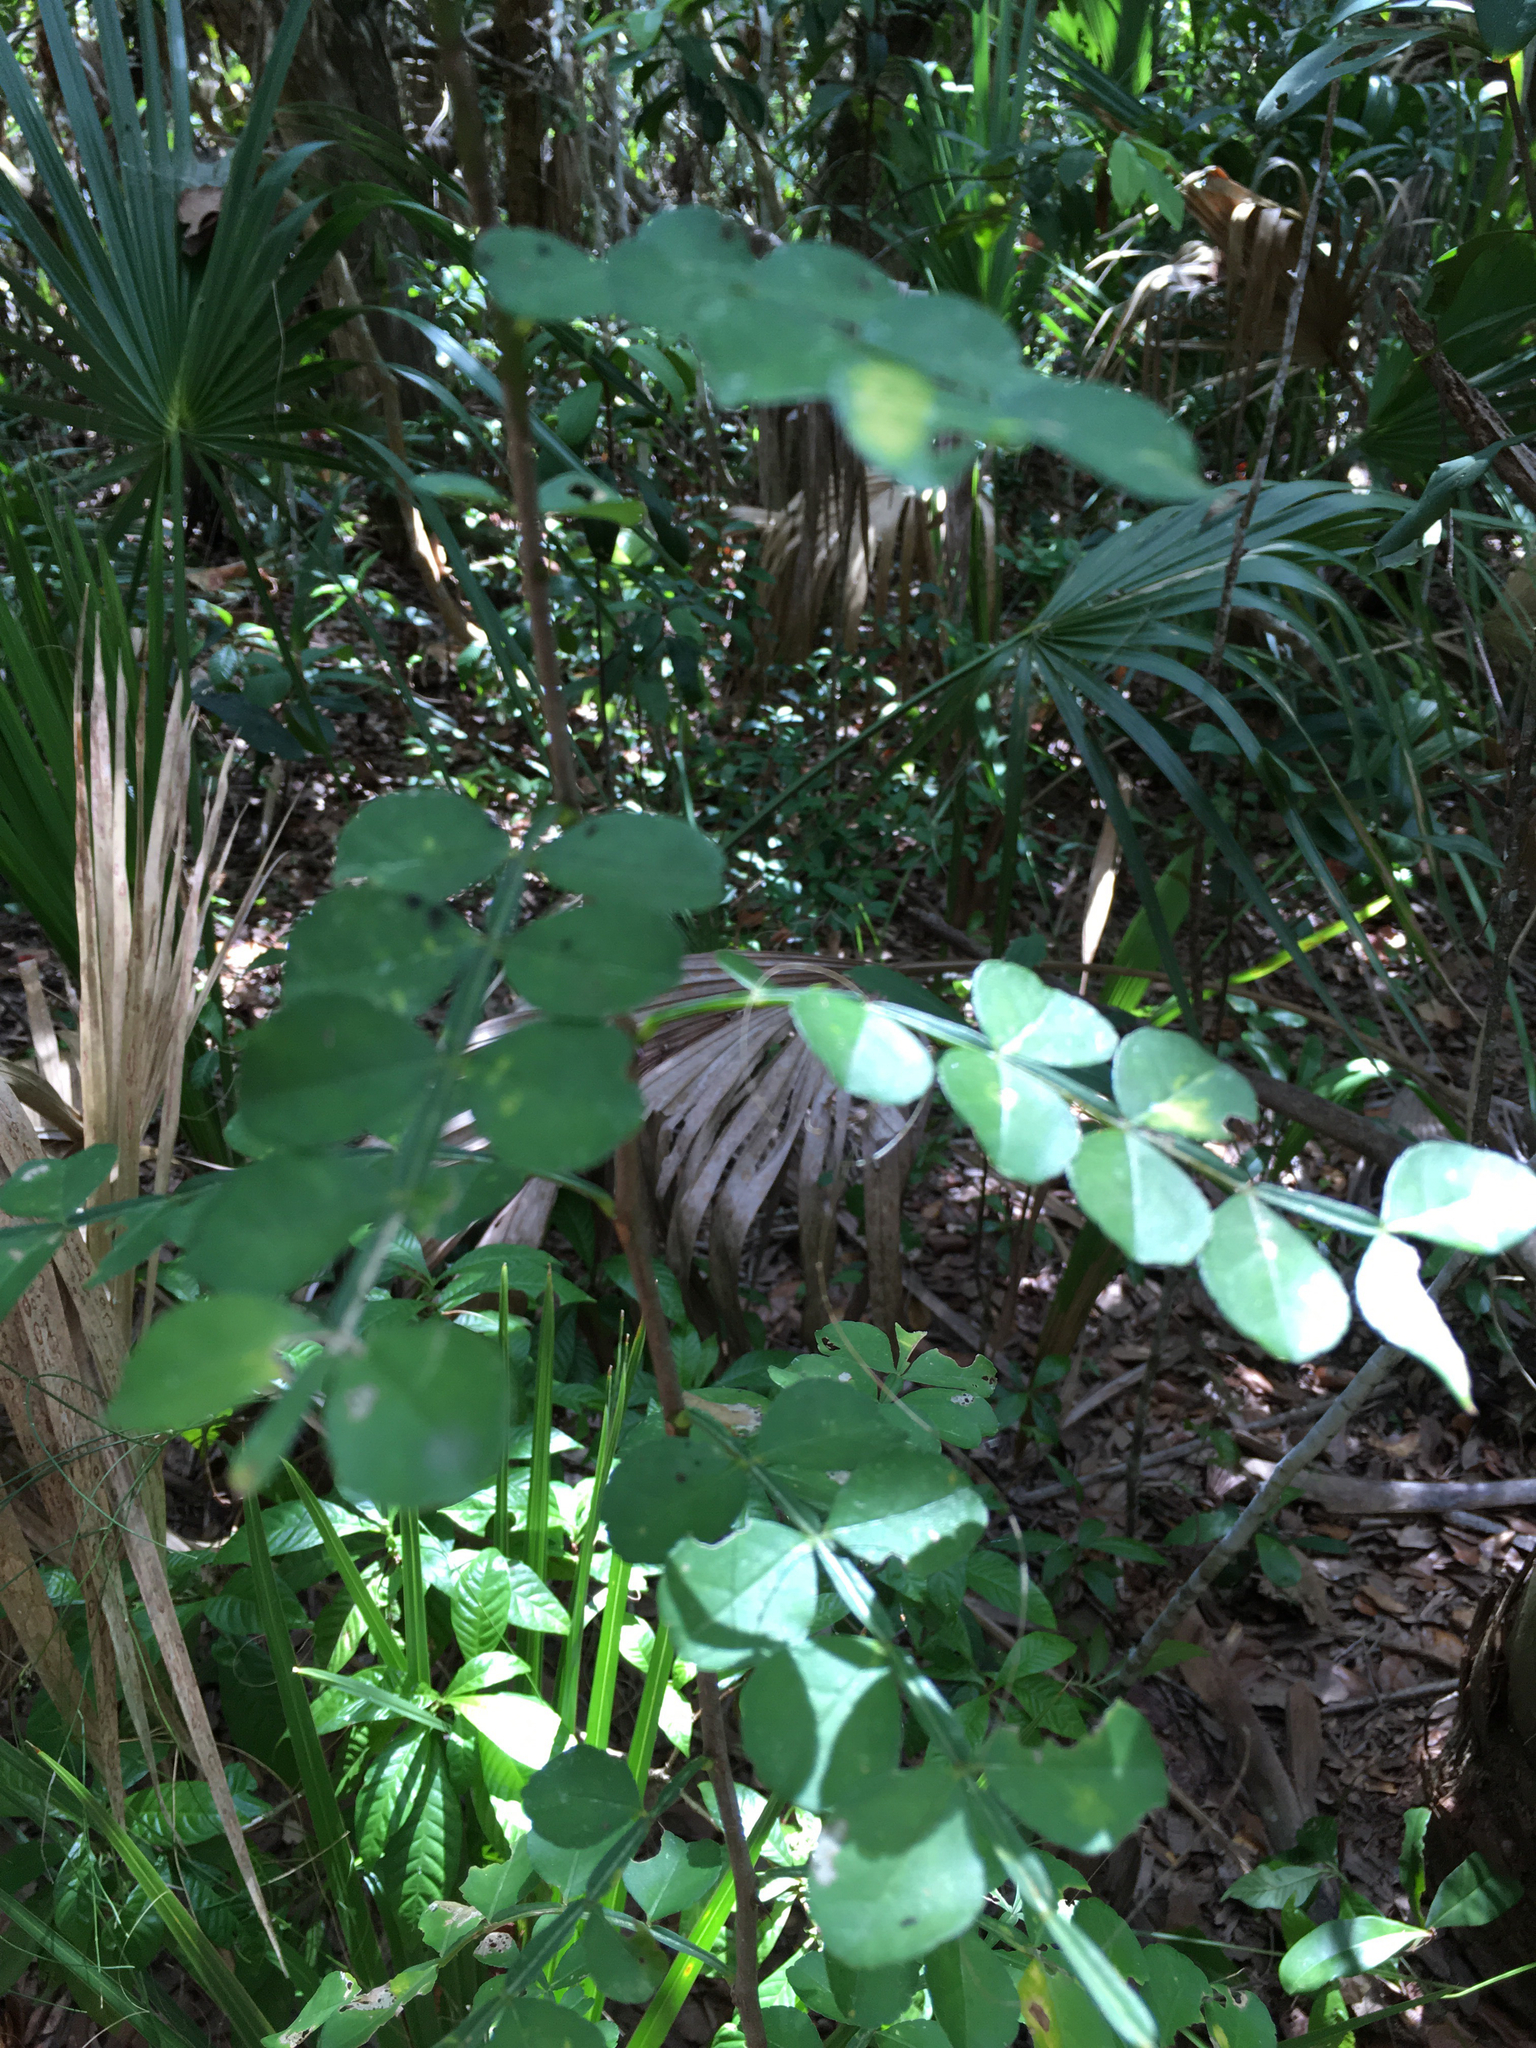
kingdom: Plantae
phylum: Tracheophyta
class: Magnoliopsida
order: Sapindales
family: Rutaceae
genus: Zanthoxylum
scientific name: Zanthoxylum fagara
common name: Lime prickly-ash
